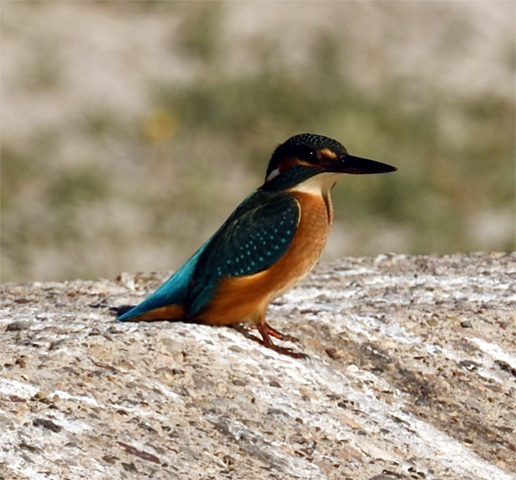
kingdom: Animalia
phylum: Chordata
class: Aves
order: Coraciiformes
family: Alcedinidae
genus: Alcedo
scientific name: Alcedo atthis
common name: Common kingfisher
